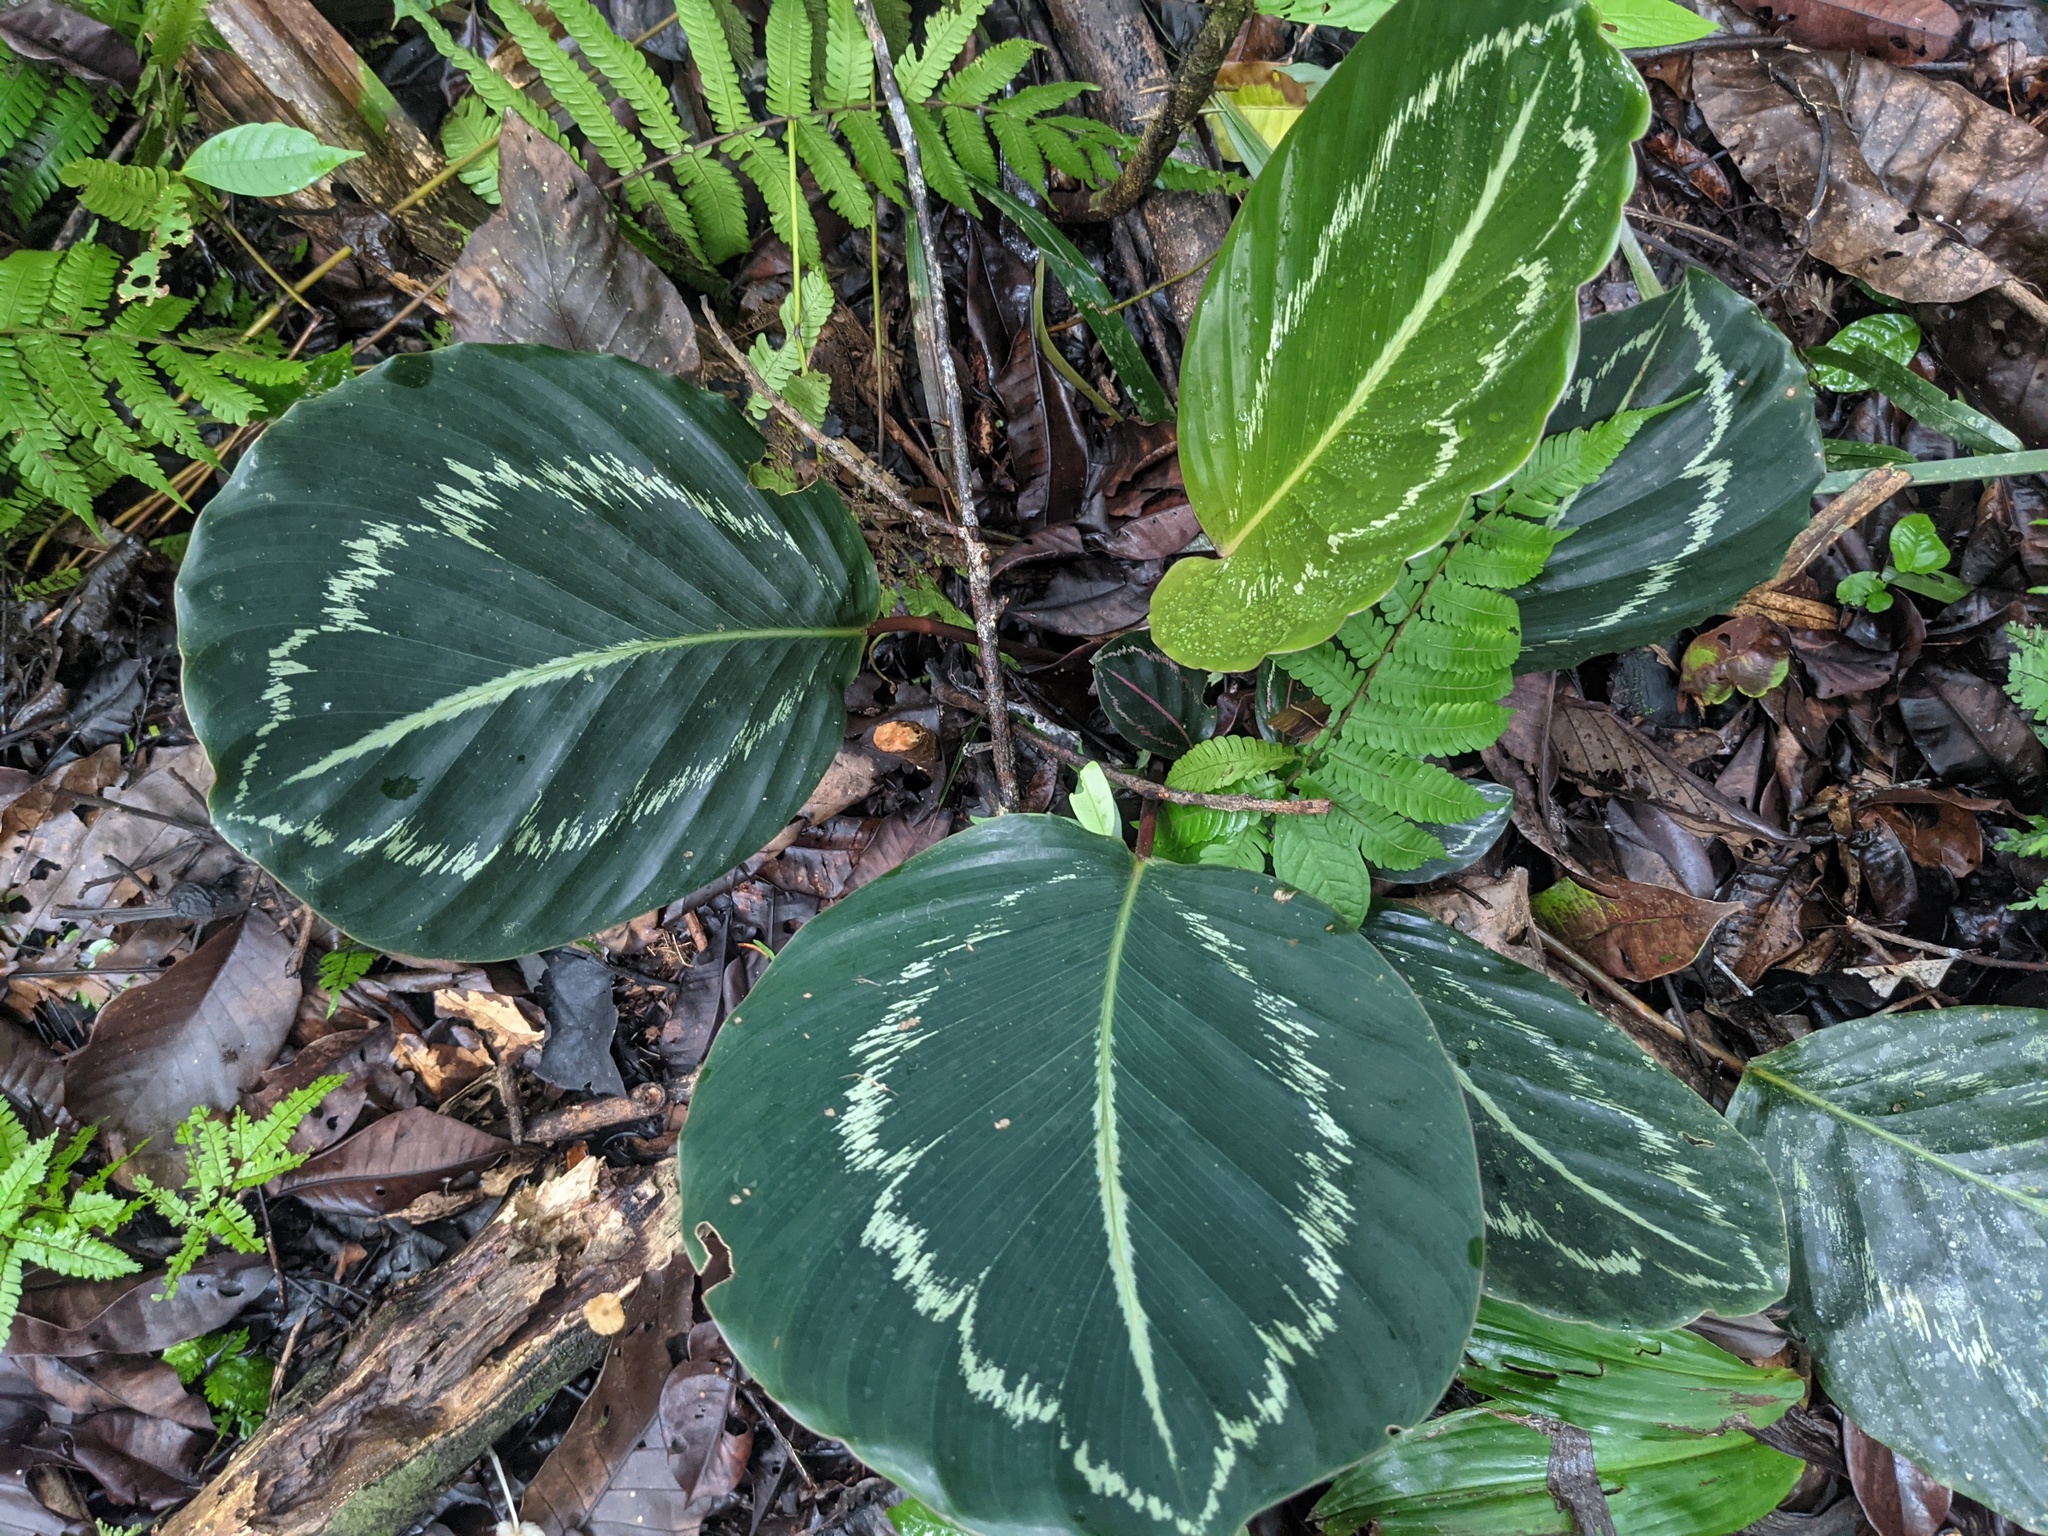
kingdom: Plantae
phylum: Tracheophyta
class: Liliopsida
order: Zingiberales
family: Marantaceae
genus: Goeppertia
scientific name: Goeppertia roseopicta
